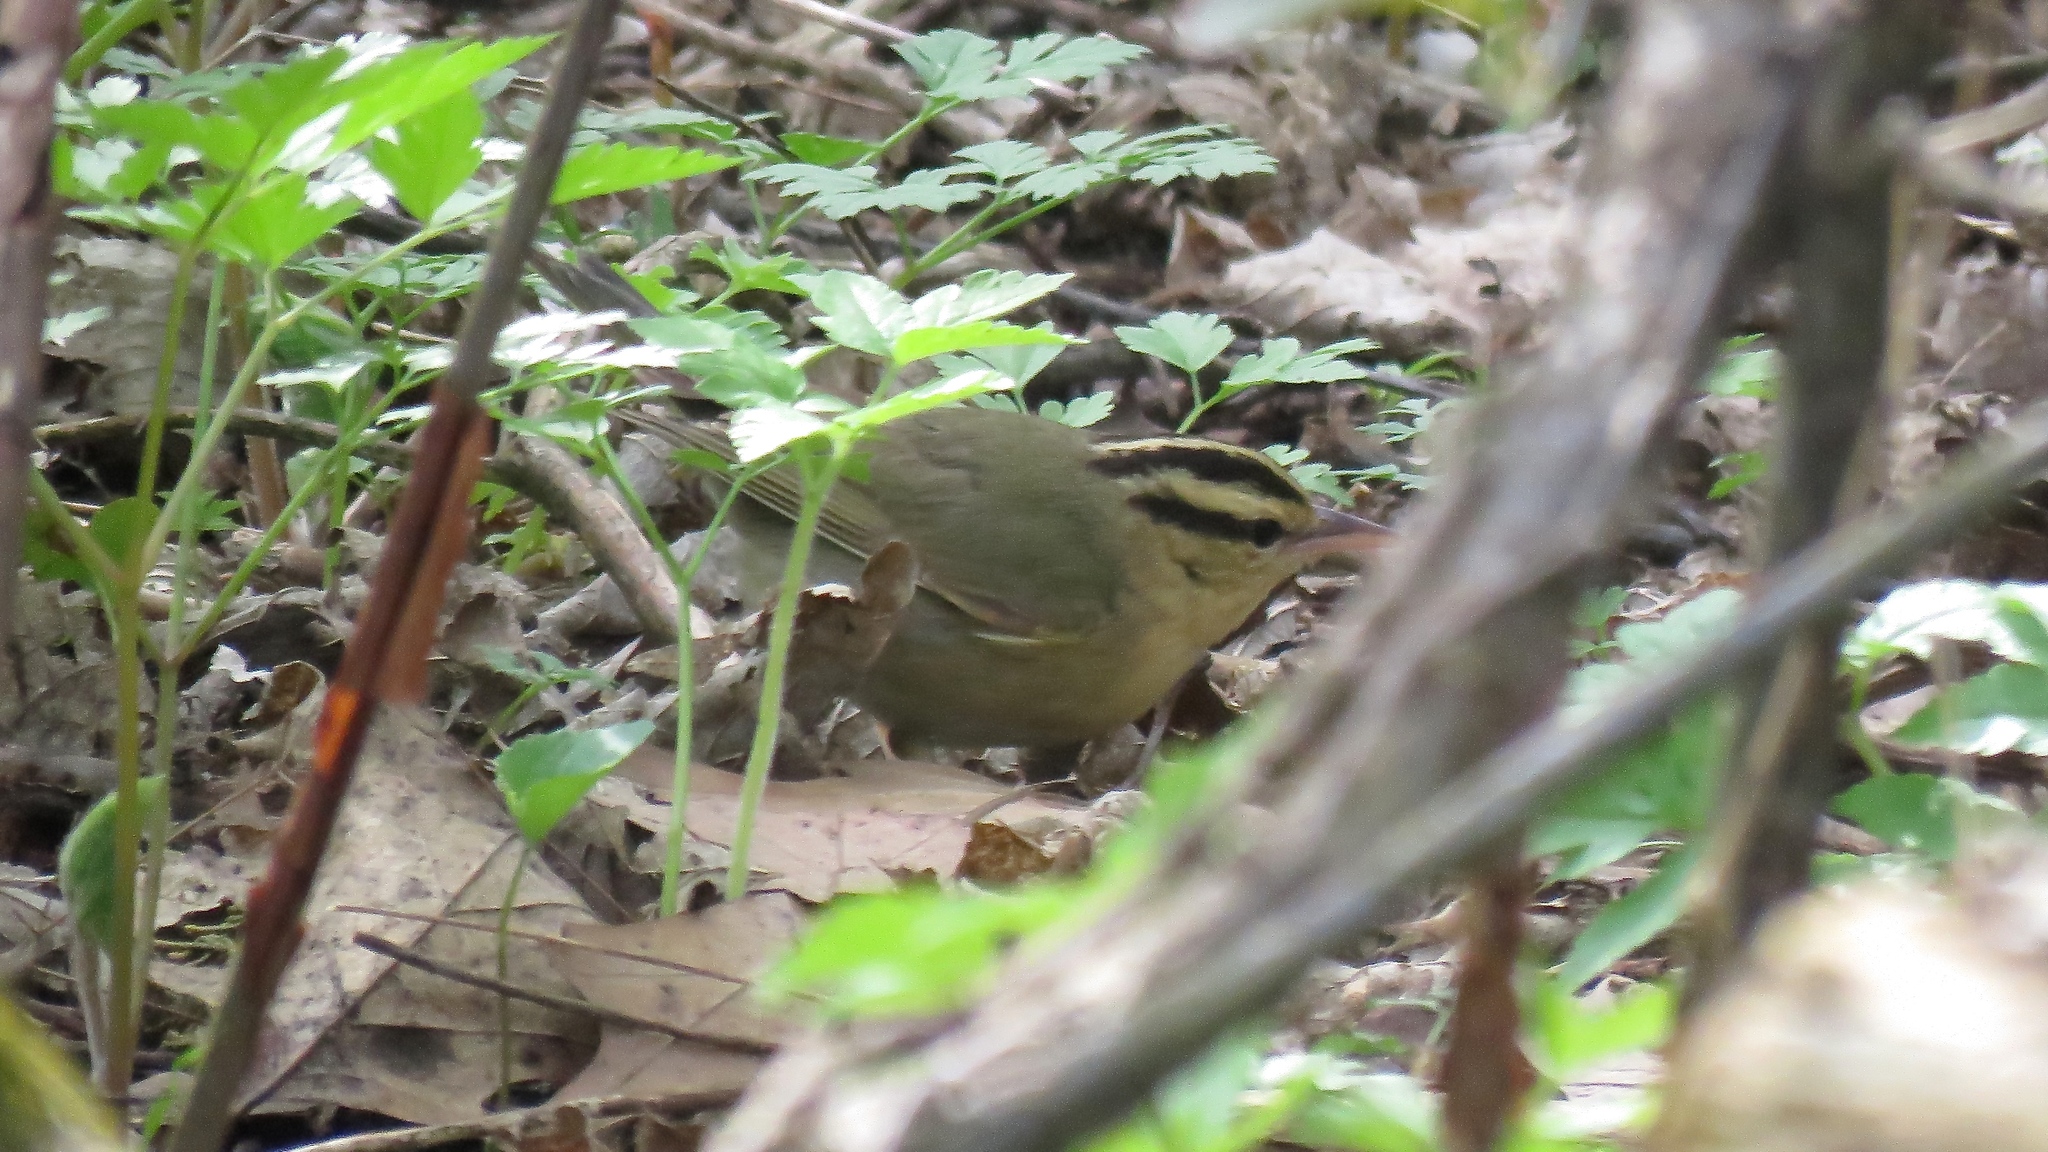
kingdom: Animalia
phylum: Chordata
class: Aves
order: Passeriformes
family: Parulidae
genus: Helmitheros
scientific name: Helmitheros vermivorum
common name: Worm-eating warbler
